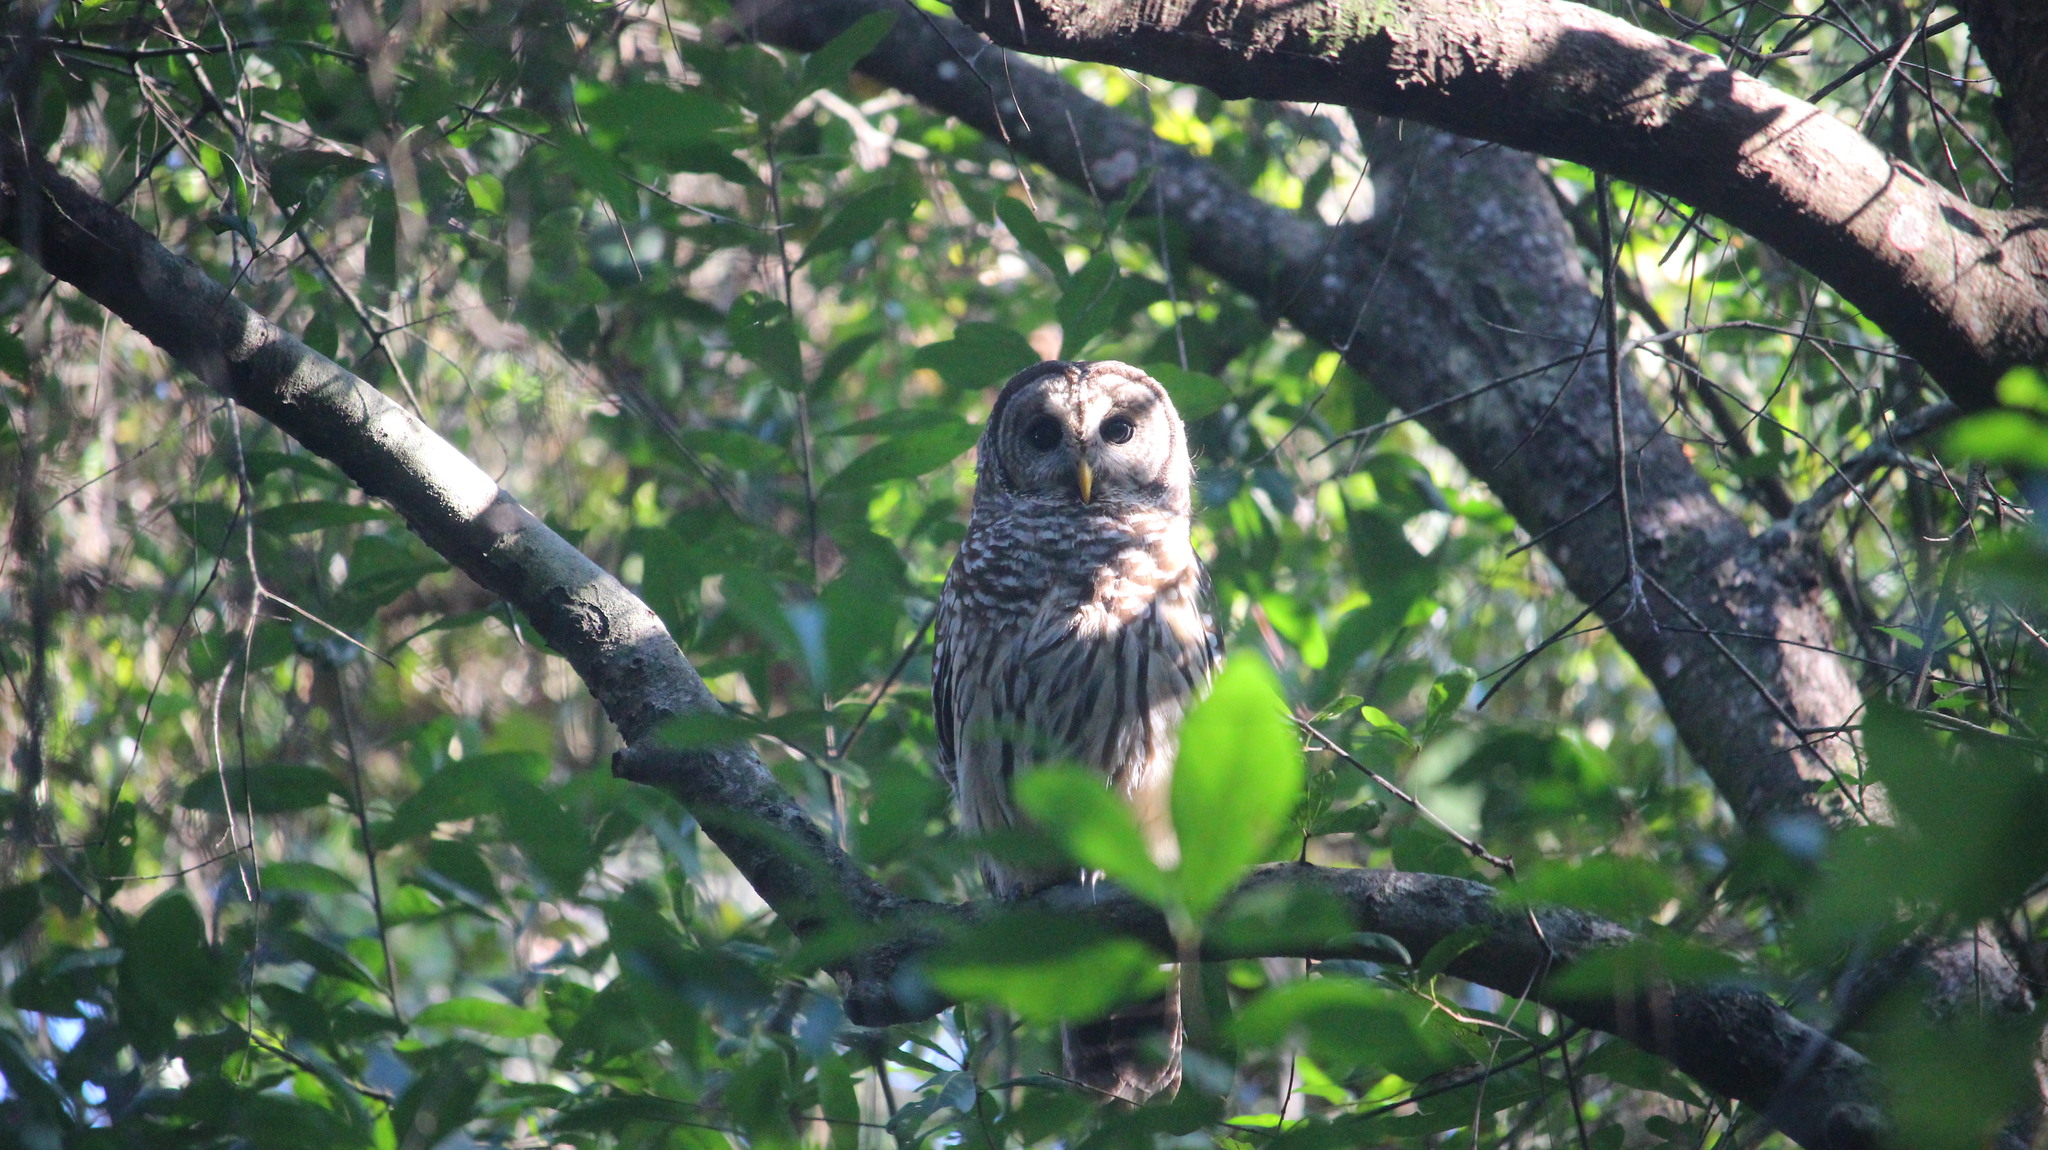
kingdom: Animalia
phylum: Chordata
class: Aves
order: Strigiformes
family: Strigidae
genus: Strix
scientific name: Strix varia
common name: Barred owl
